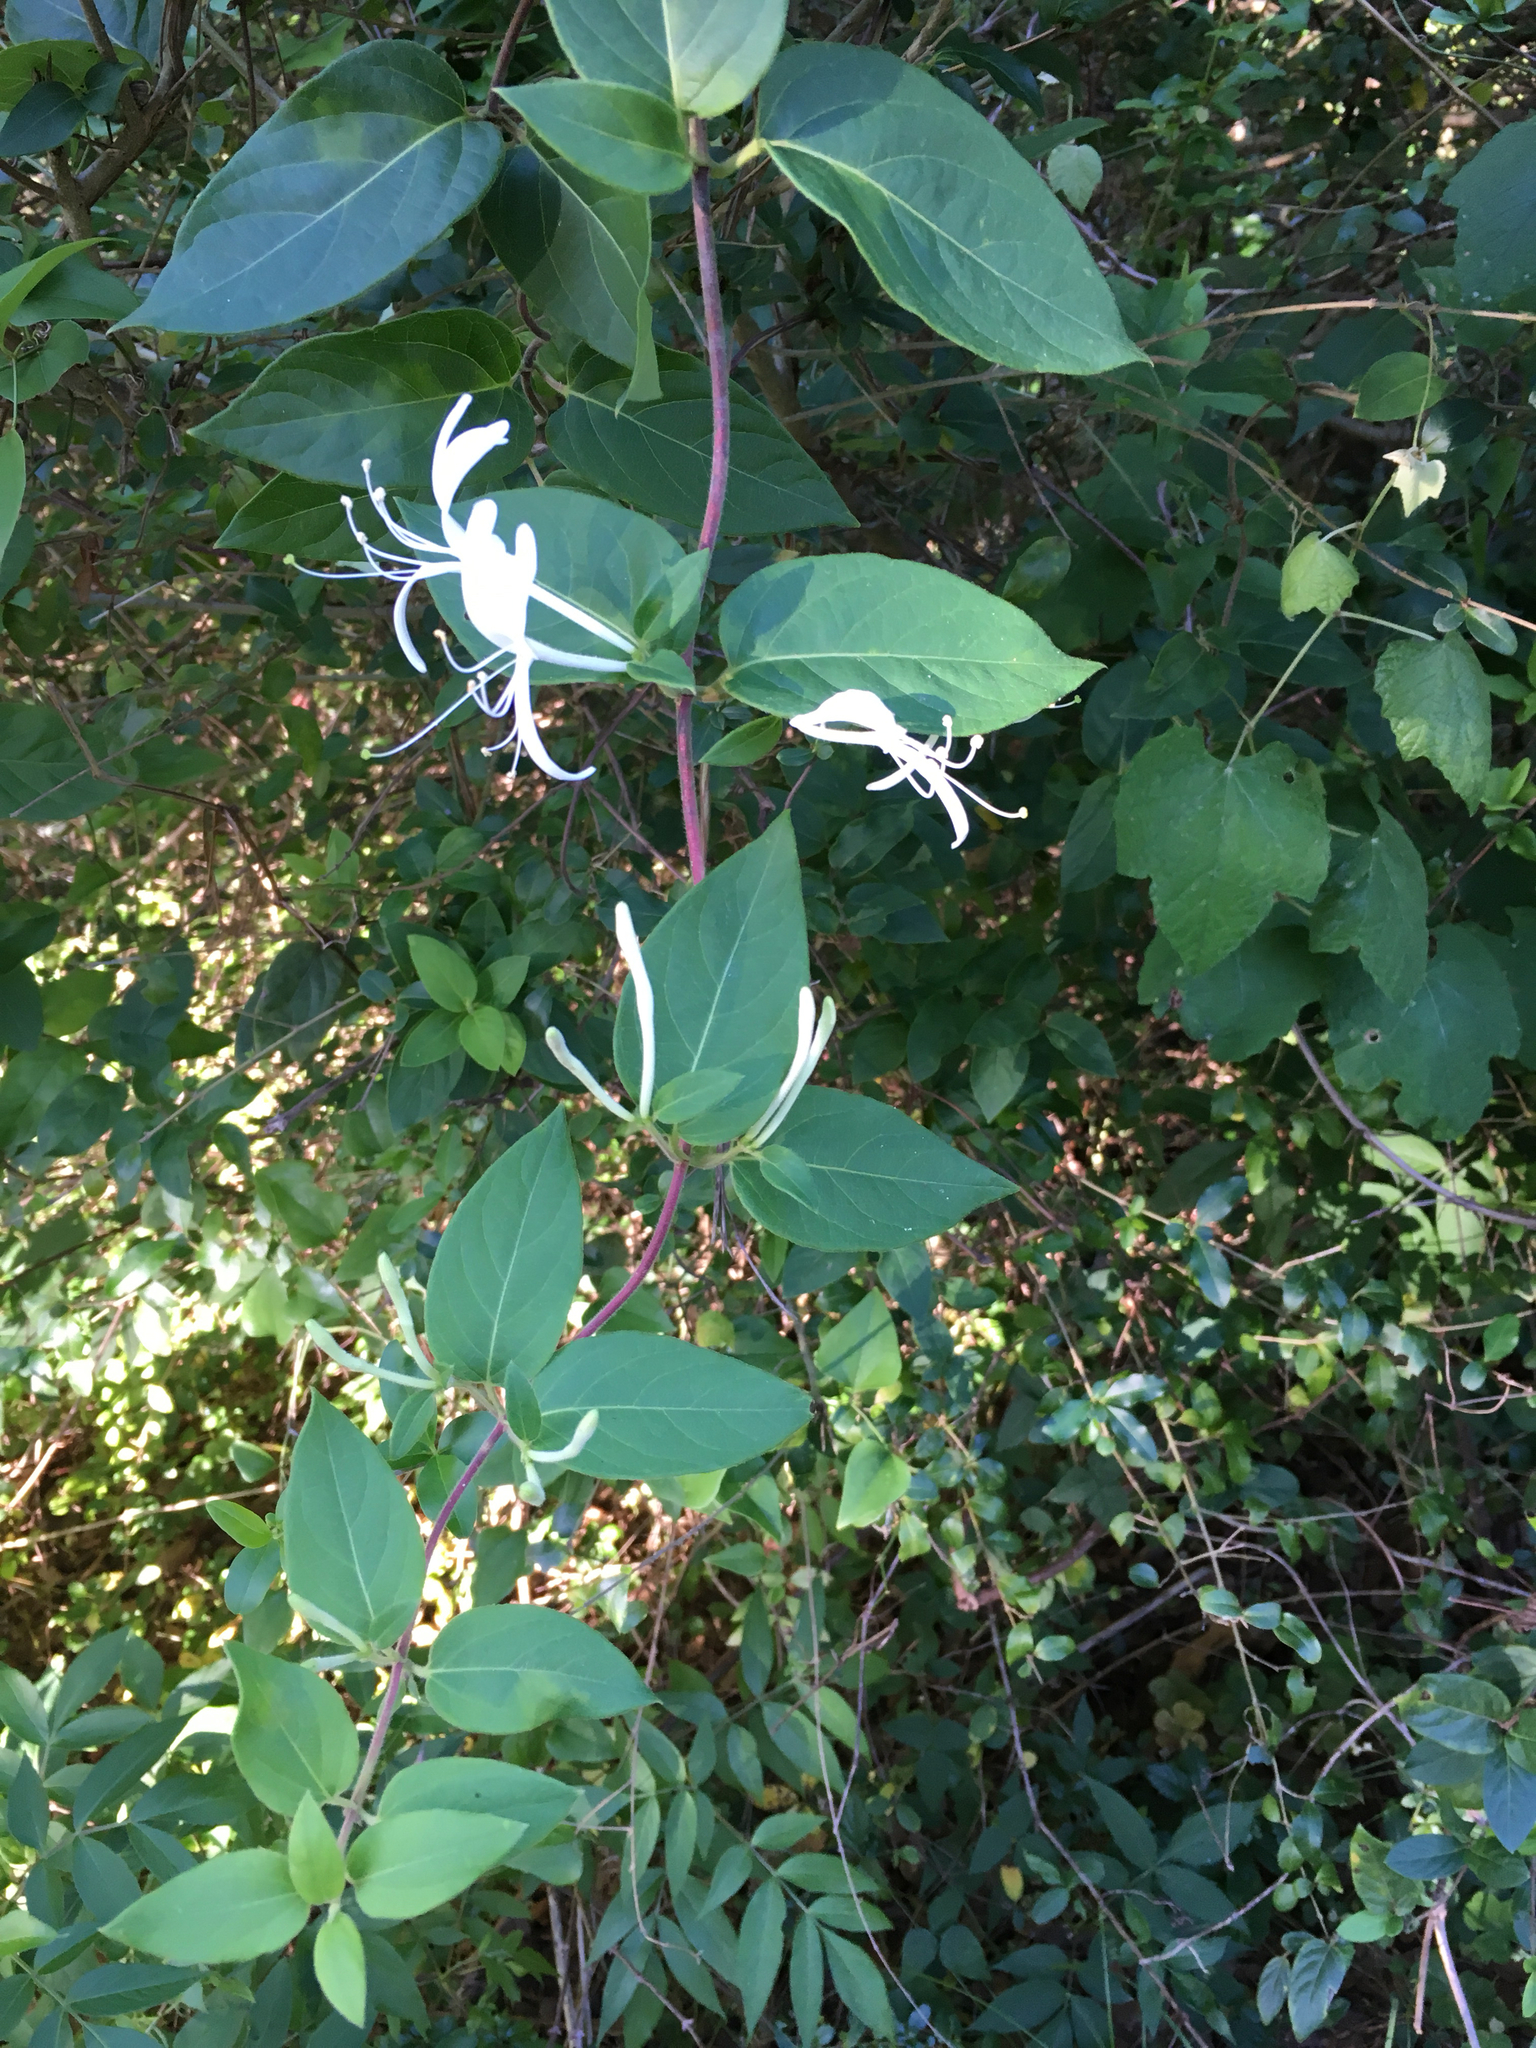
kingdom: Plantae
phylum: Tracheophyta
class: Magnoliopsida
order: Dipsacales
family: Caprifoliaceae
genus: Lonicera
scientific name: Lonicera japonica
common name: Japanese honeysuckle
